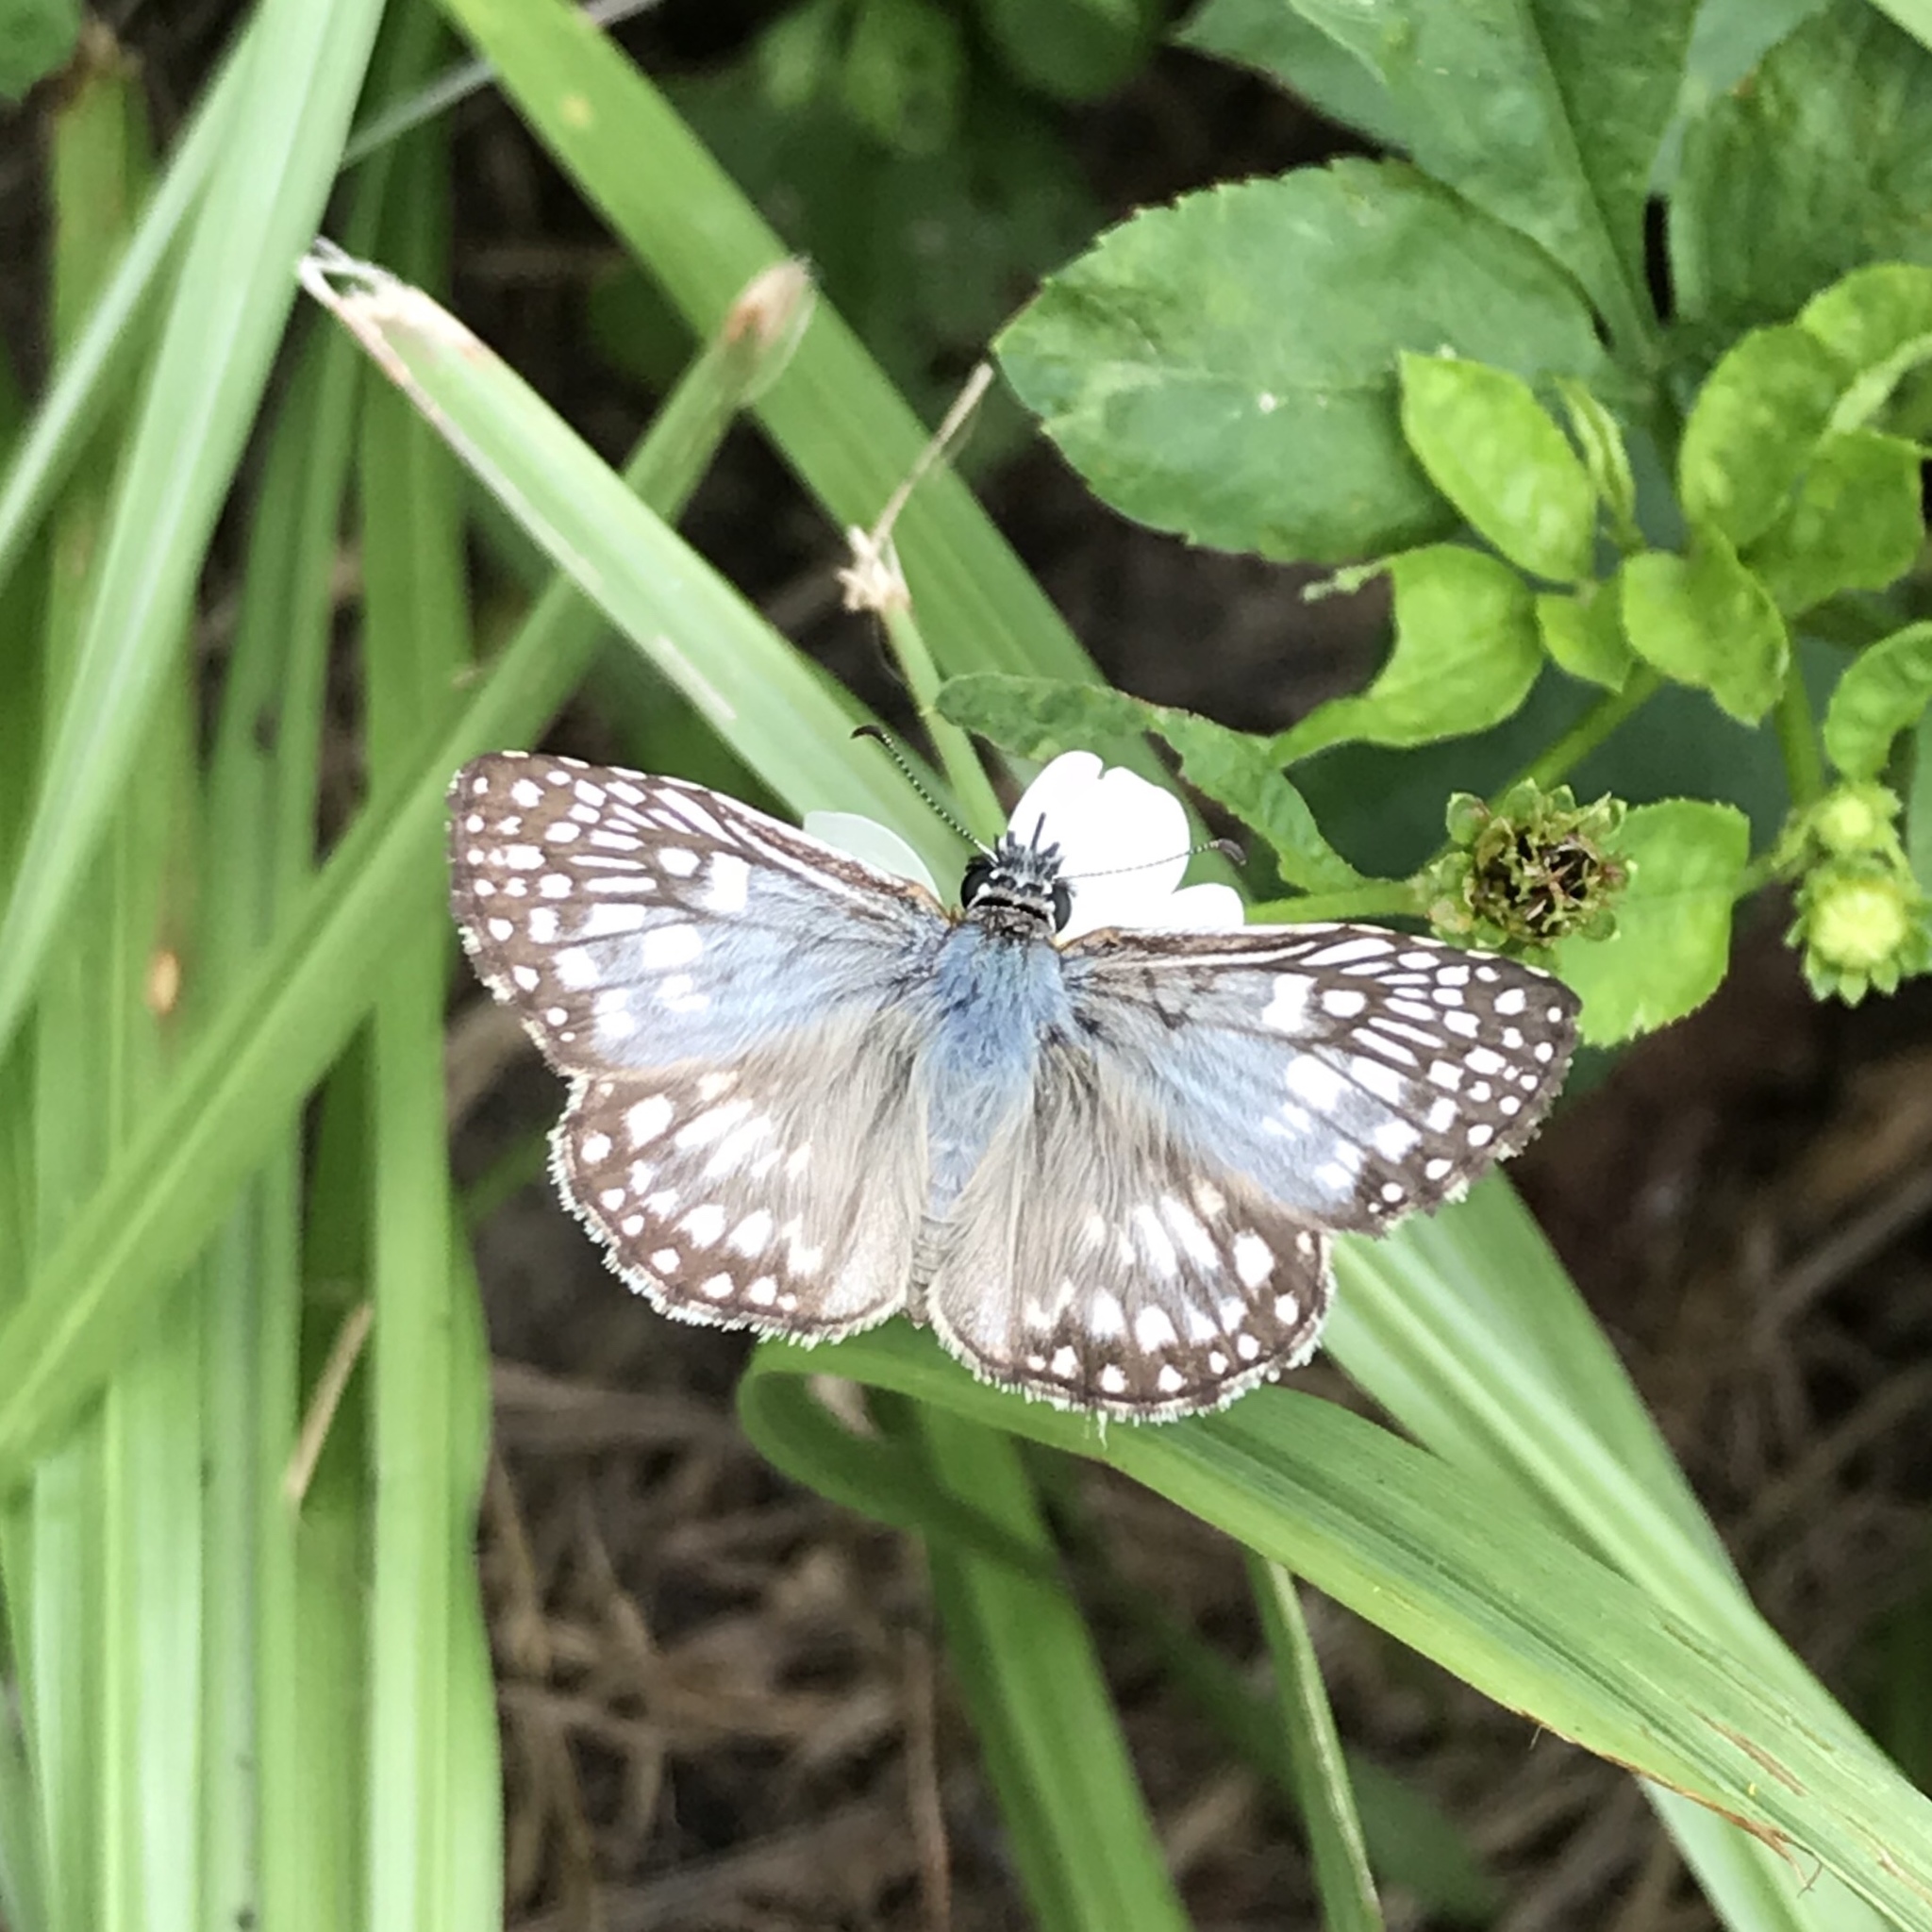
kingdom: Animalia
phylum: Arthropoda
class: Insecta
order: Lepidoptera
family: Hesperiidae
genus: Pyrgus
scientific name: Pyrgus oileus
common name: Tropical checkered-skipper
